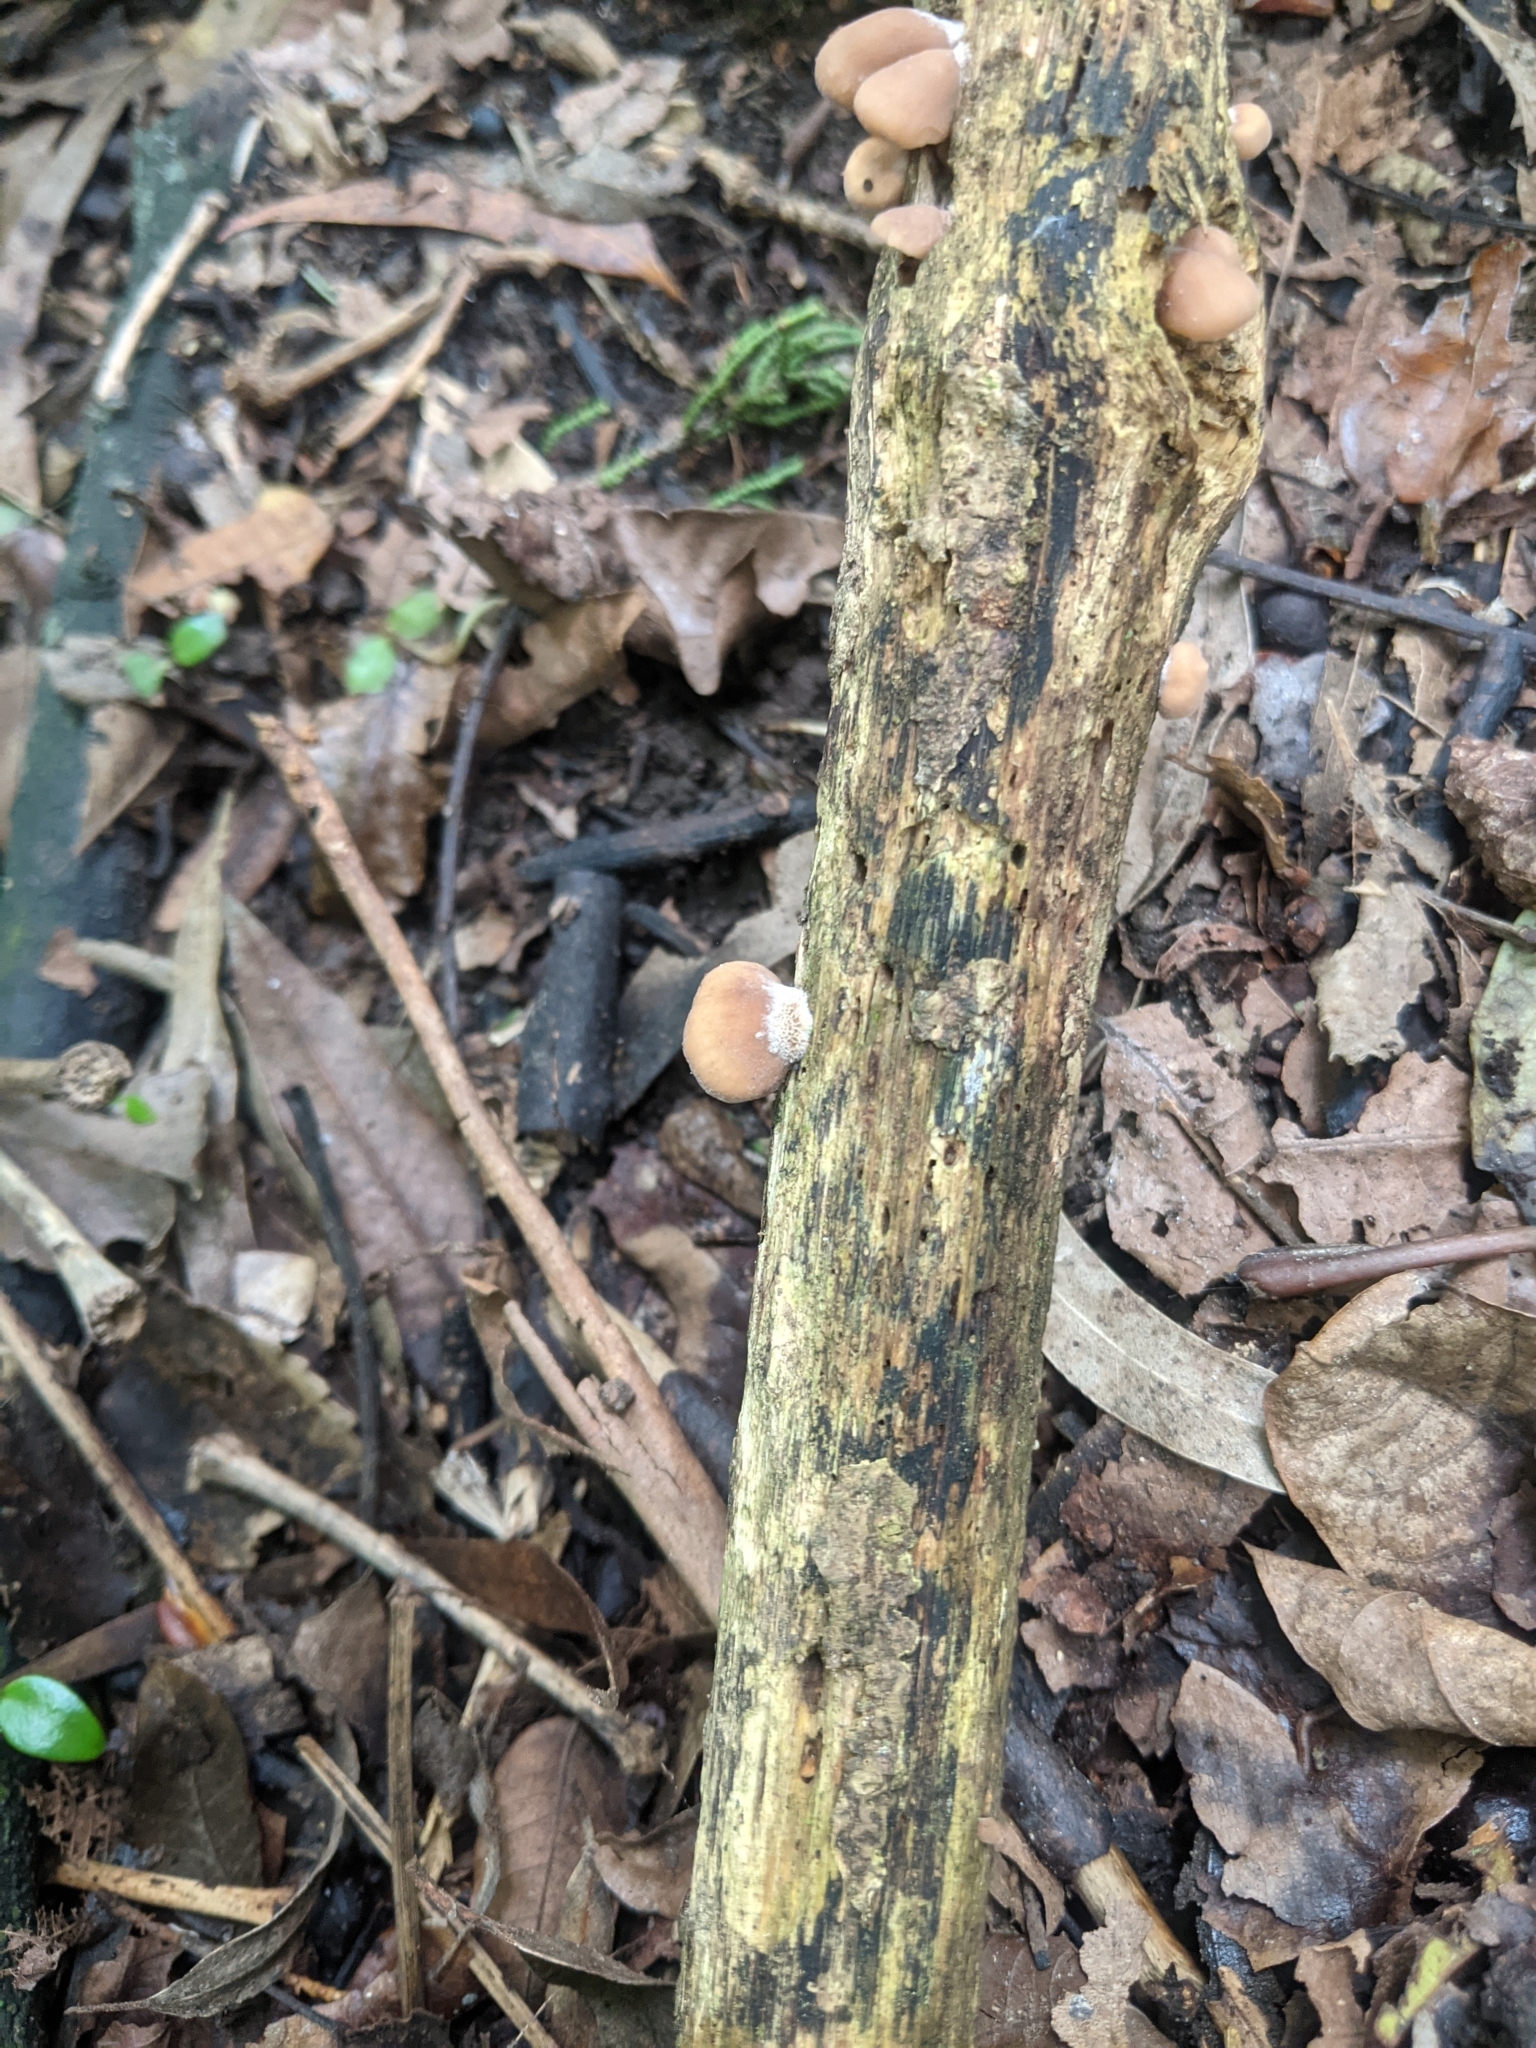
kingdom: Fungi
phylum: Basidiomycota
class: Agaricomycetes
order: Russulales
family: Auriscalpiaceae
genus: Lentinellus
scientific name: Lentinellus pulvinulus
